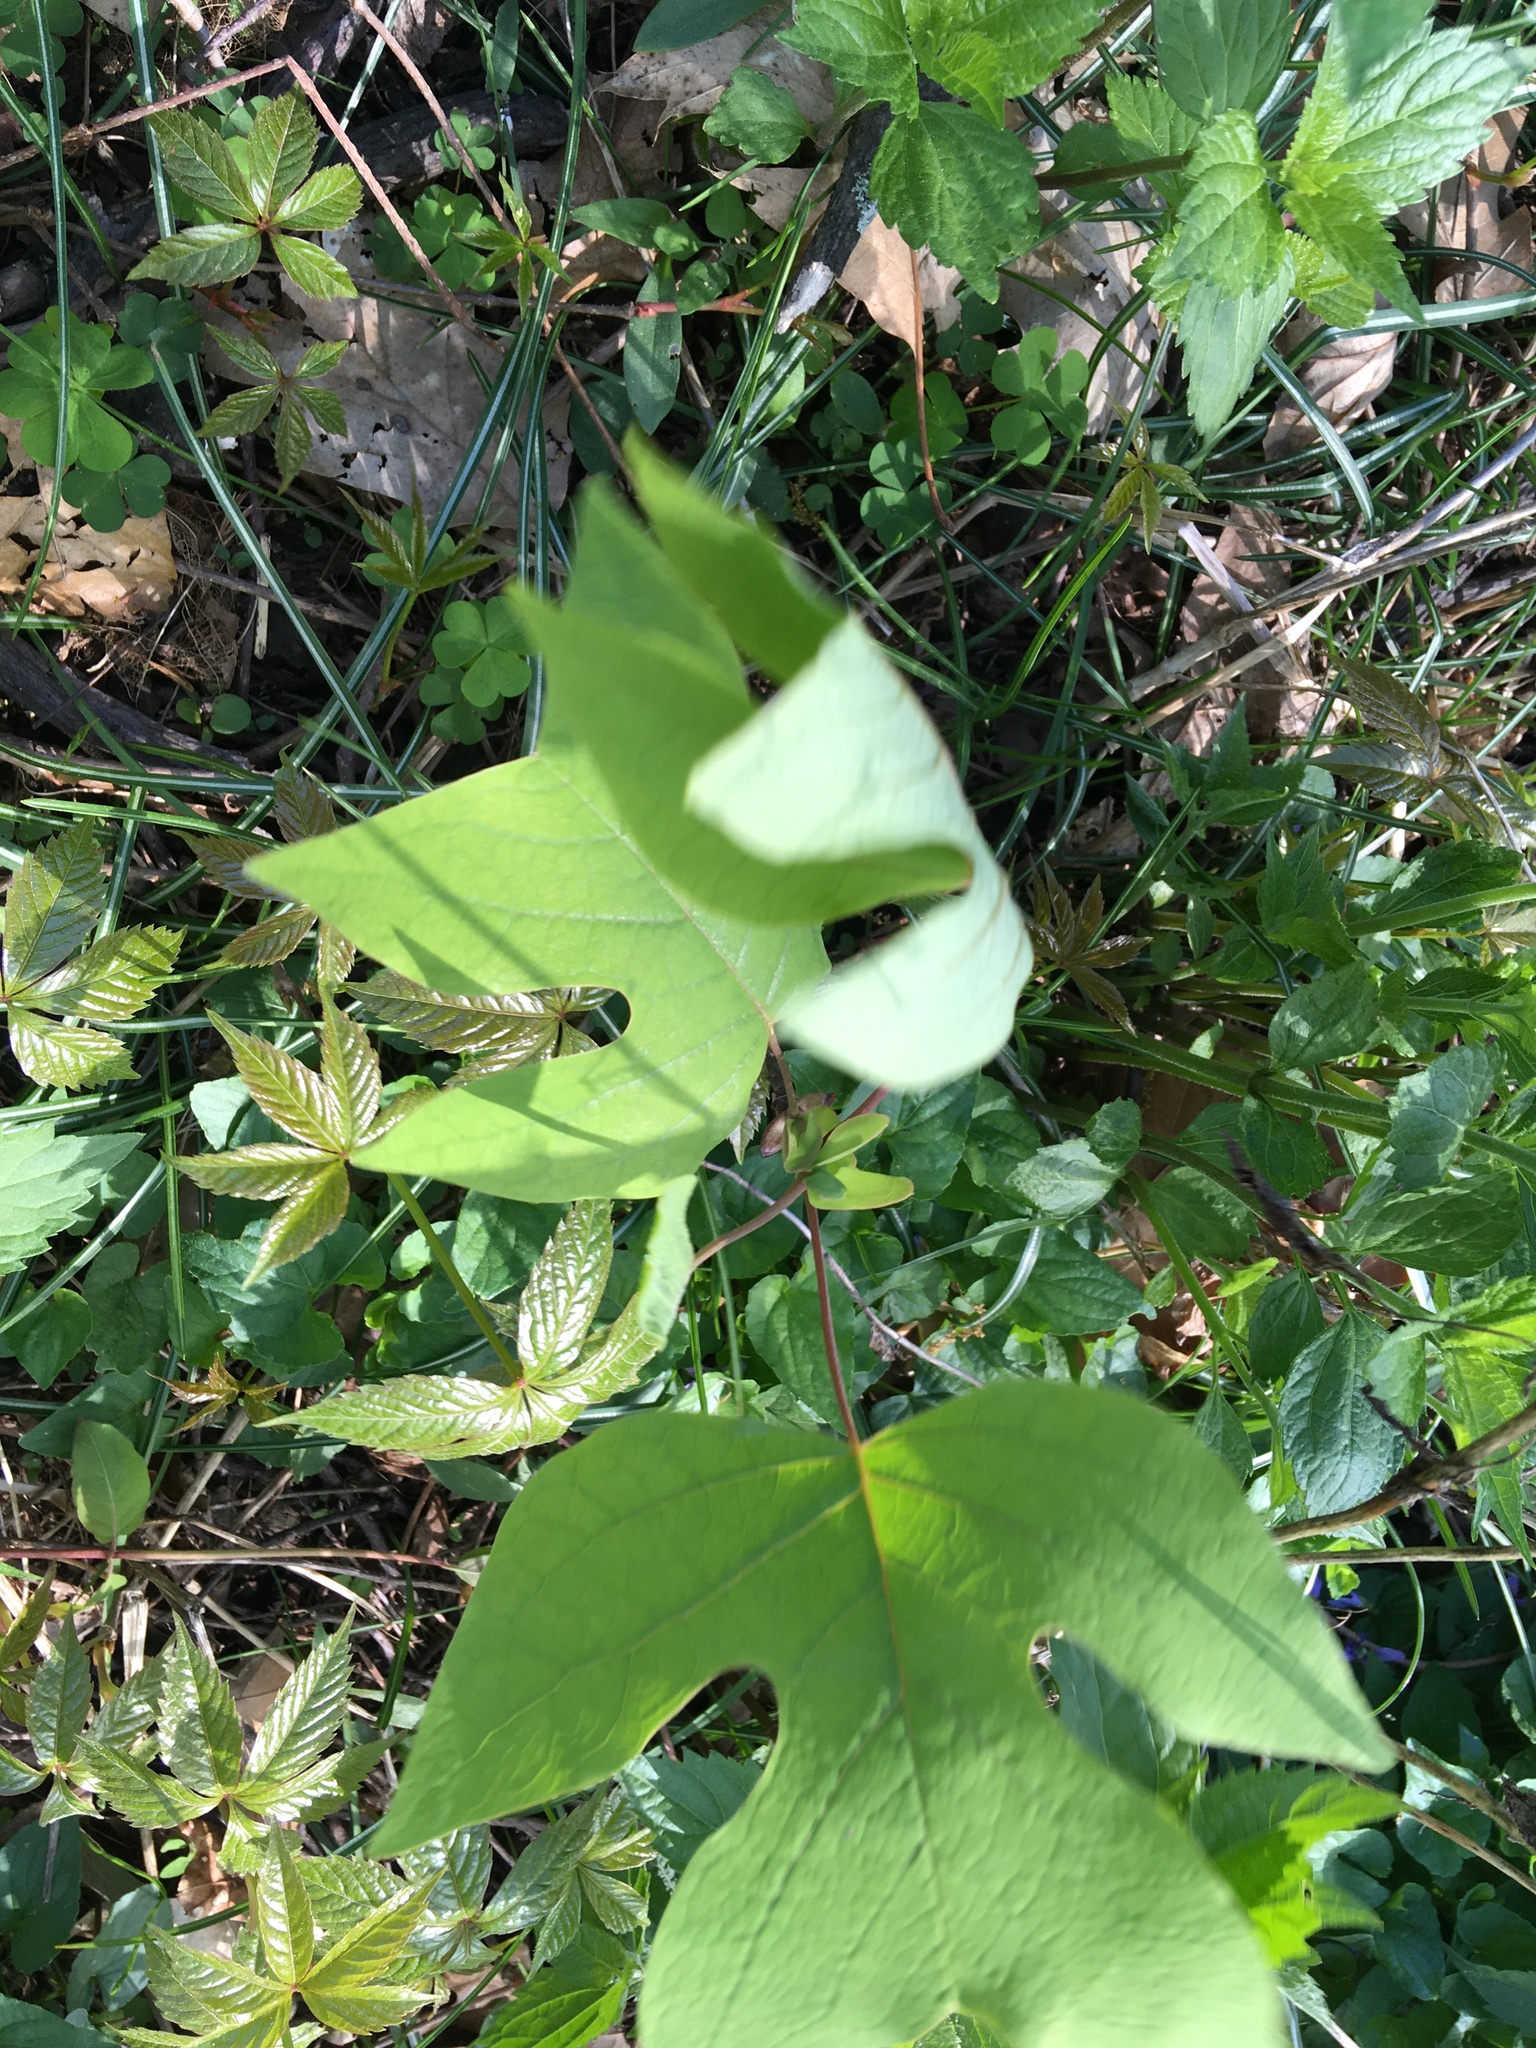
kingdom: Plantae
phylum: Tracheophyta
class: Magnoliopsida
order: Magnoliales
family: Magnoliaceae
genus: Liriodendron
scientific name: Liriodendron tulipifera
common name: Tulip tree
